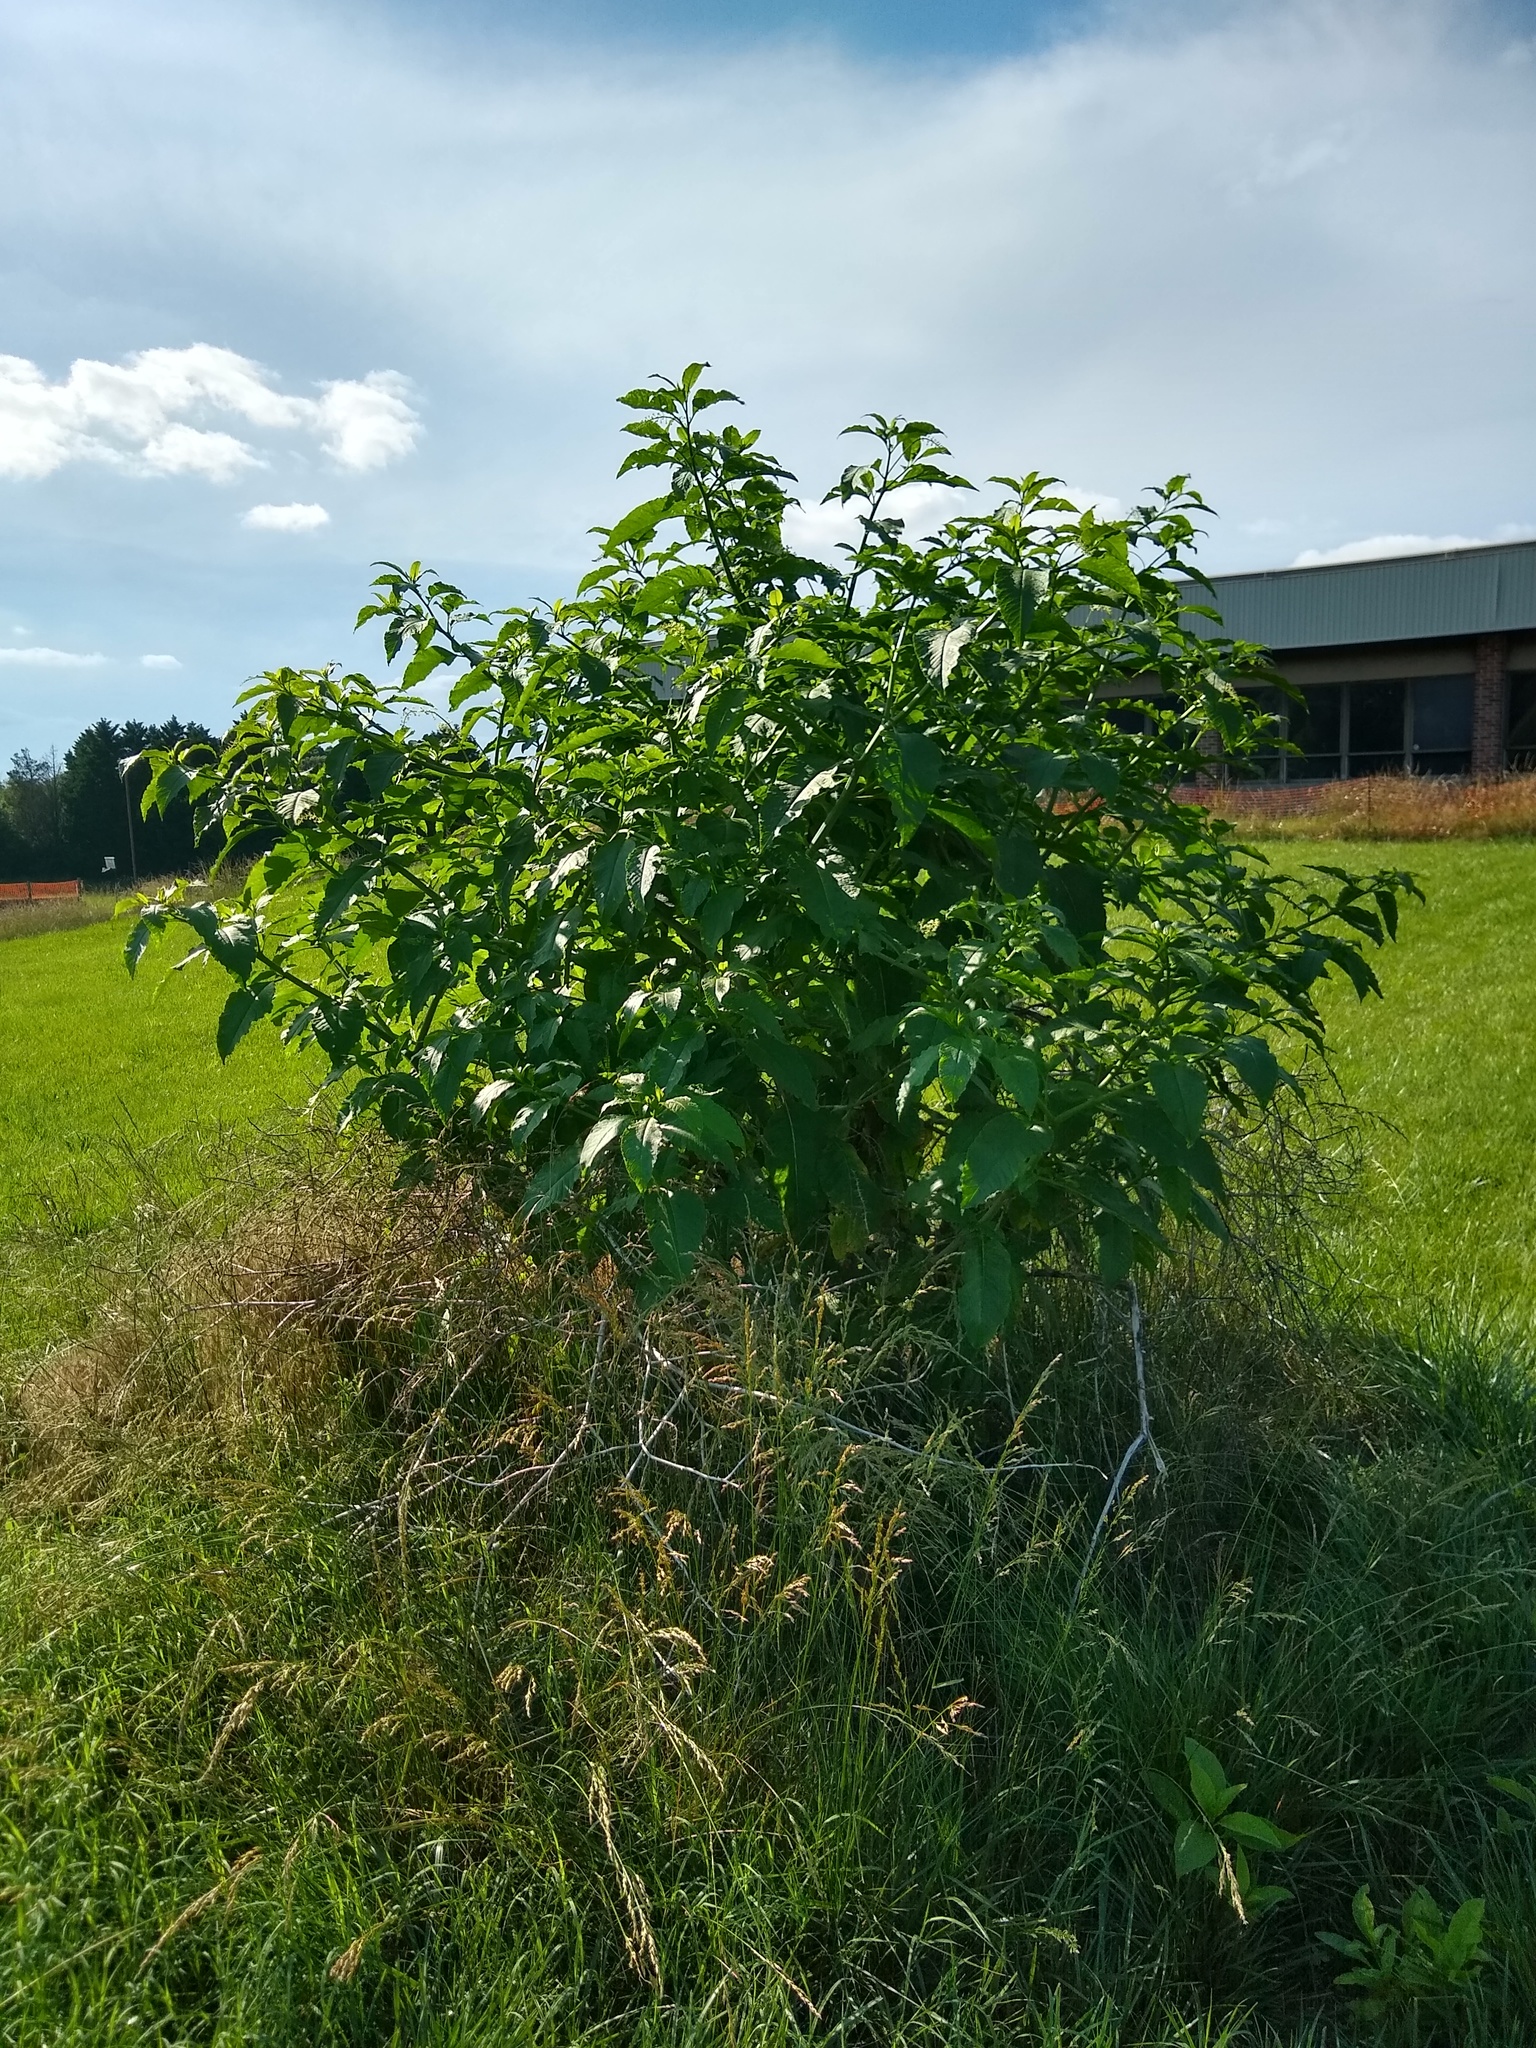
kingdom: Plantae
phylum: Tracheophyta
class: Magnoliopsida
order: Caryophyllales
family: Phytolaccaceae
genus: Phytolacca
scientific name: Phytolacca americana
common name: American pokeweed
